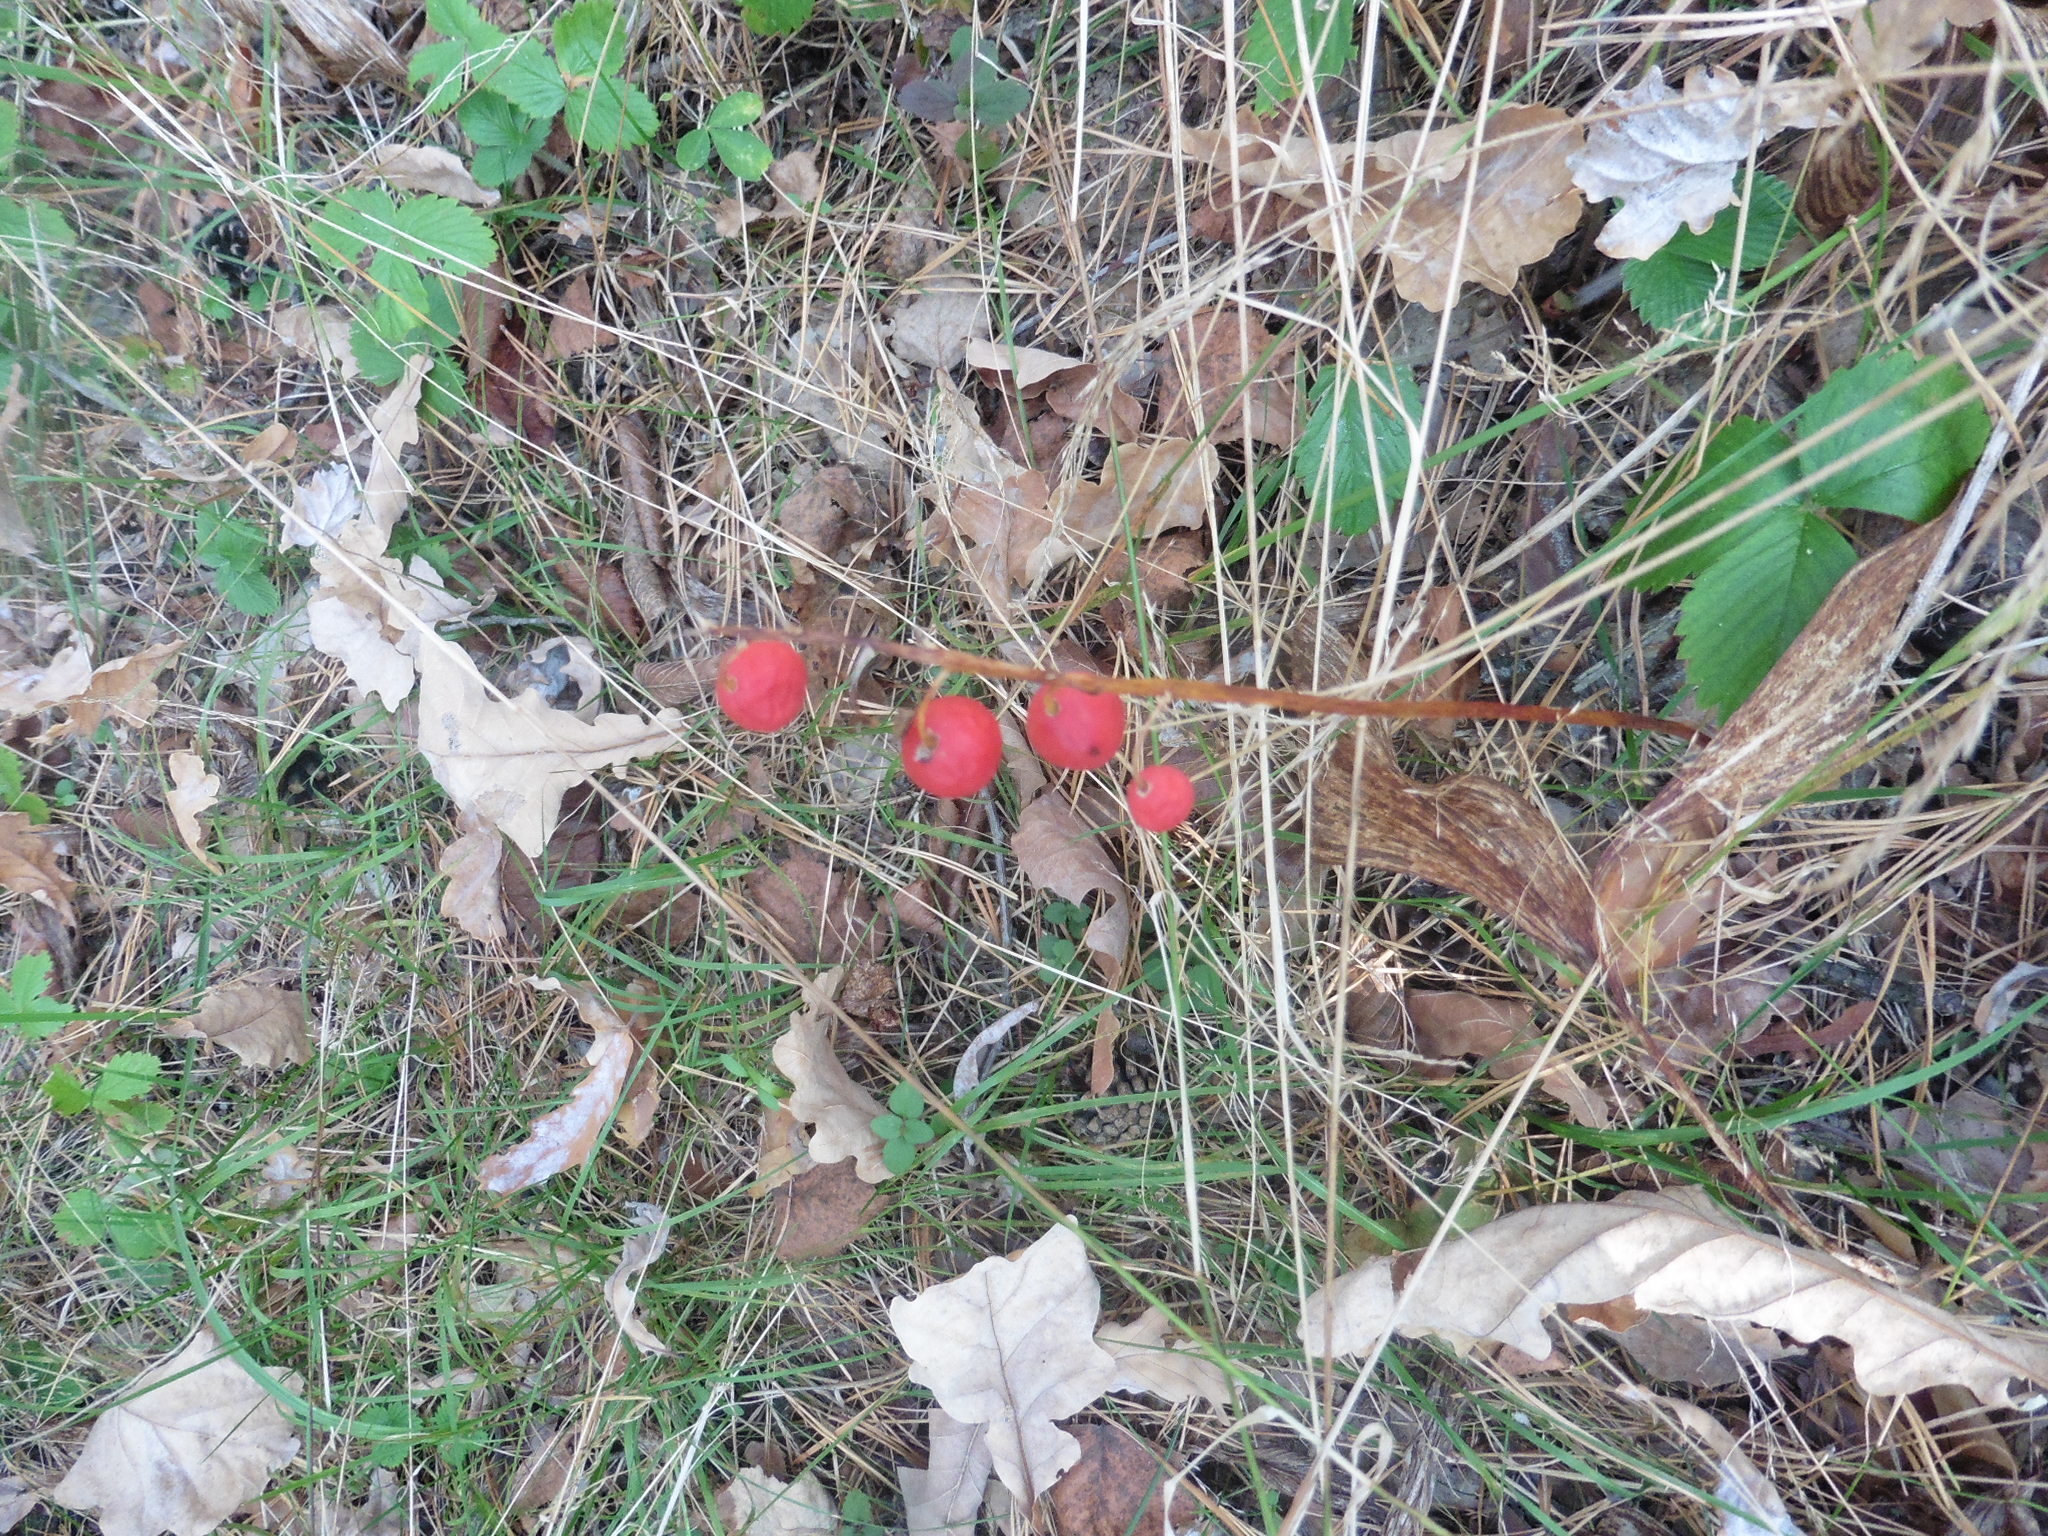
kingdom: Plantae
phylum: Tracheophyta
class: Liliopsida
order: Asparagales
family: Asparagaceae
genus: Convallaria
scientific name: Convallaria majalis
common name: Lily-of-the-valley
